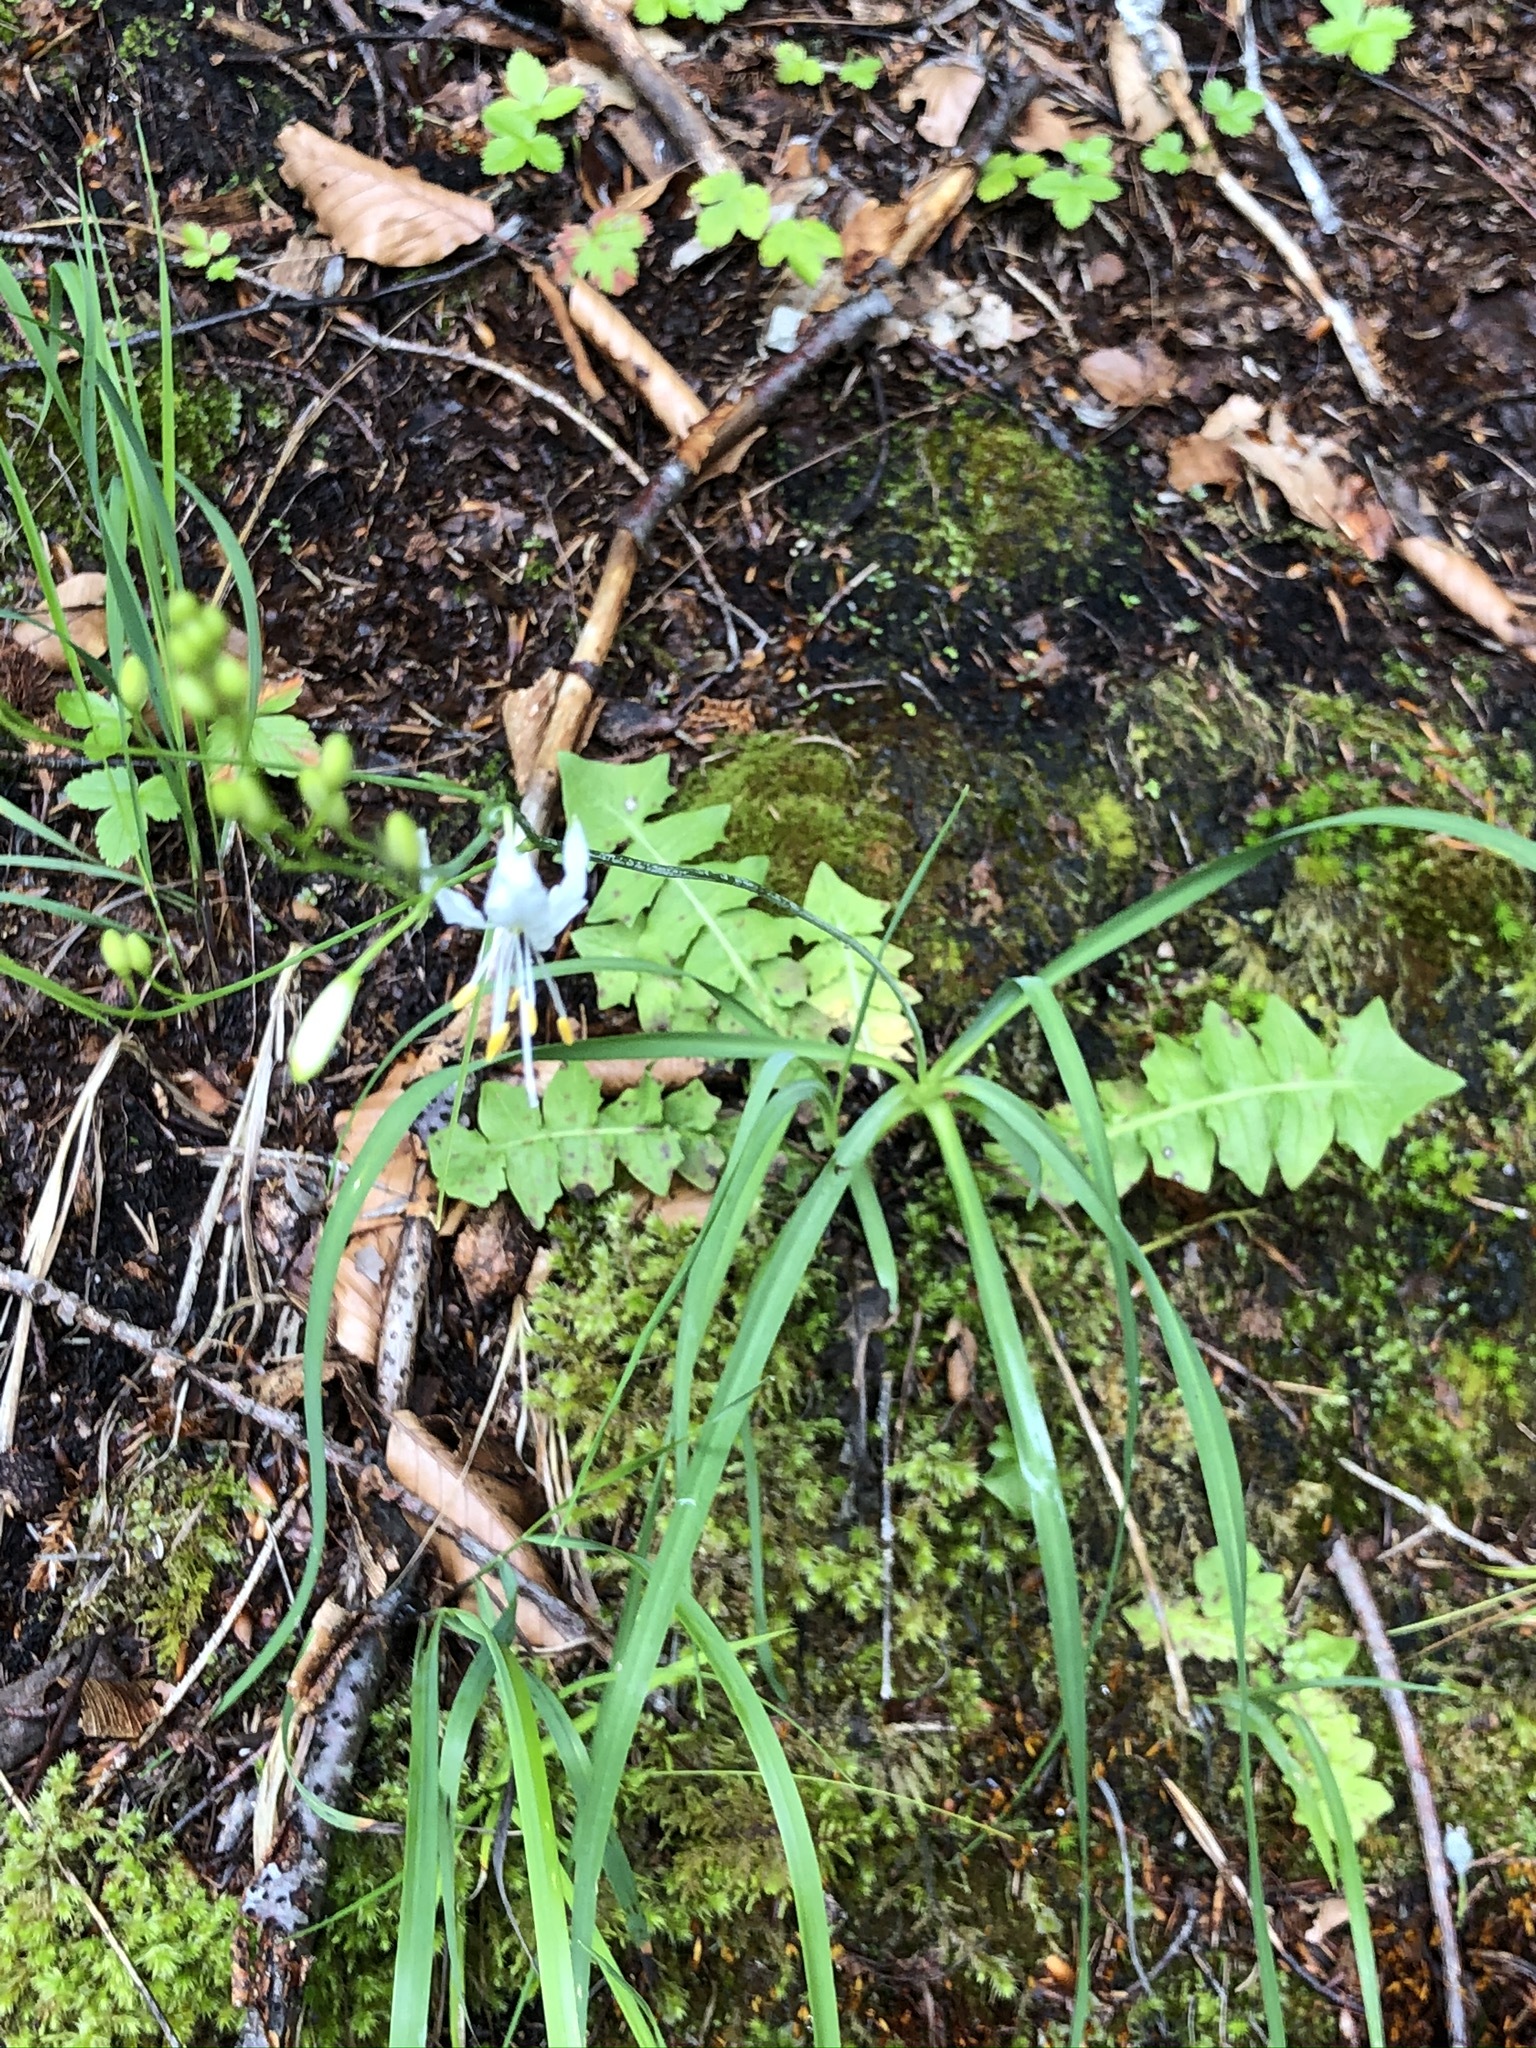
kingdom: Plantae
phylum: Tracheophyta
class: Liliopsida
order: Asparagales
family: Asparagaceae
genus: Anthericum
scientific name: Anthericum ramosum
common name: Branched st. bernard's-lily
